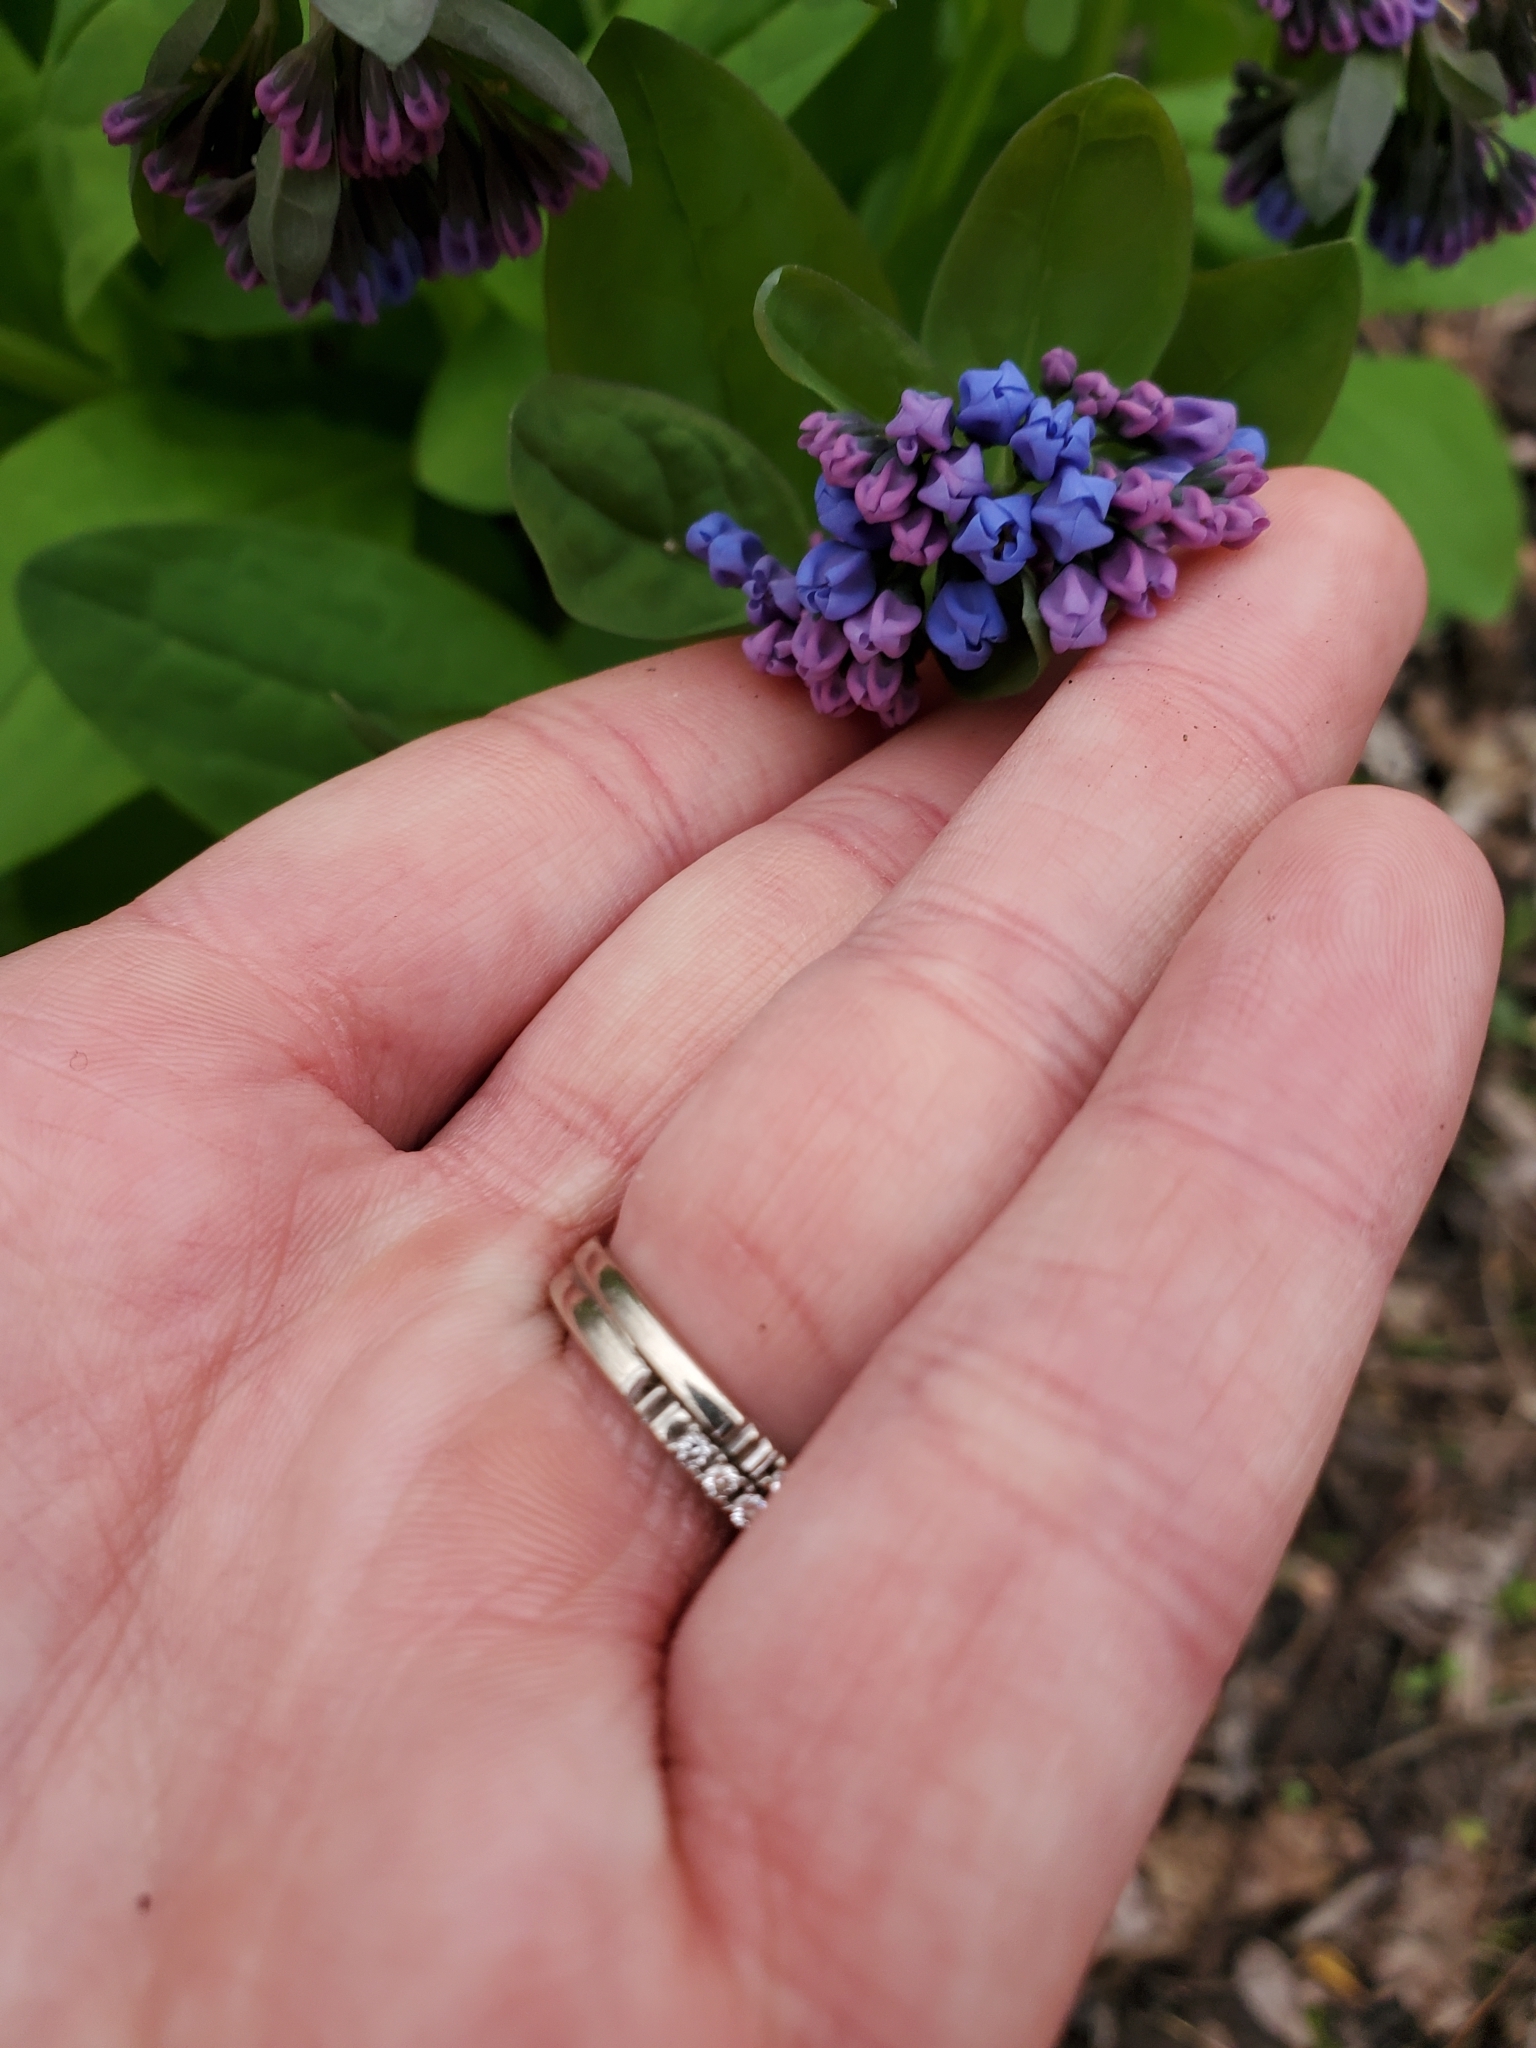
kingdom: Plantae
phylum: Tracheophyta
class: Magnoliopsida
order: Boraginales
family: Boraginaceae
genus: Mertensia
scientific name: Mertensia virginica
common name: Virginia bluebells
